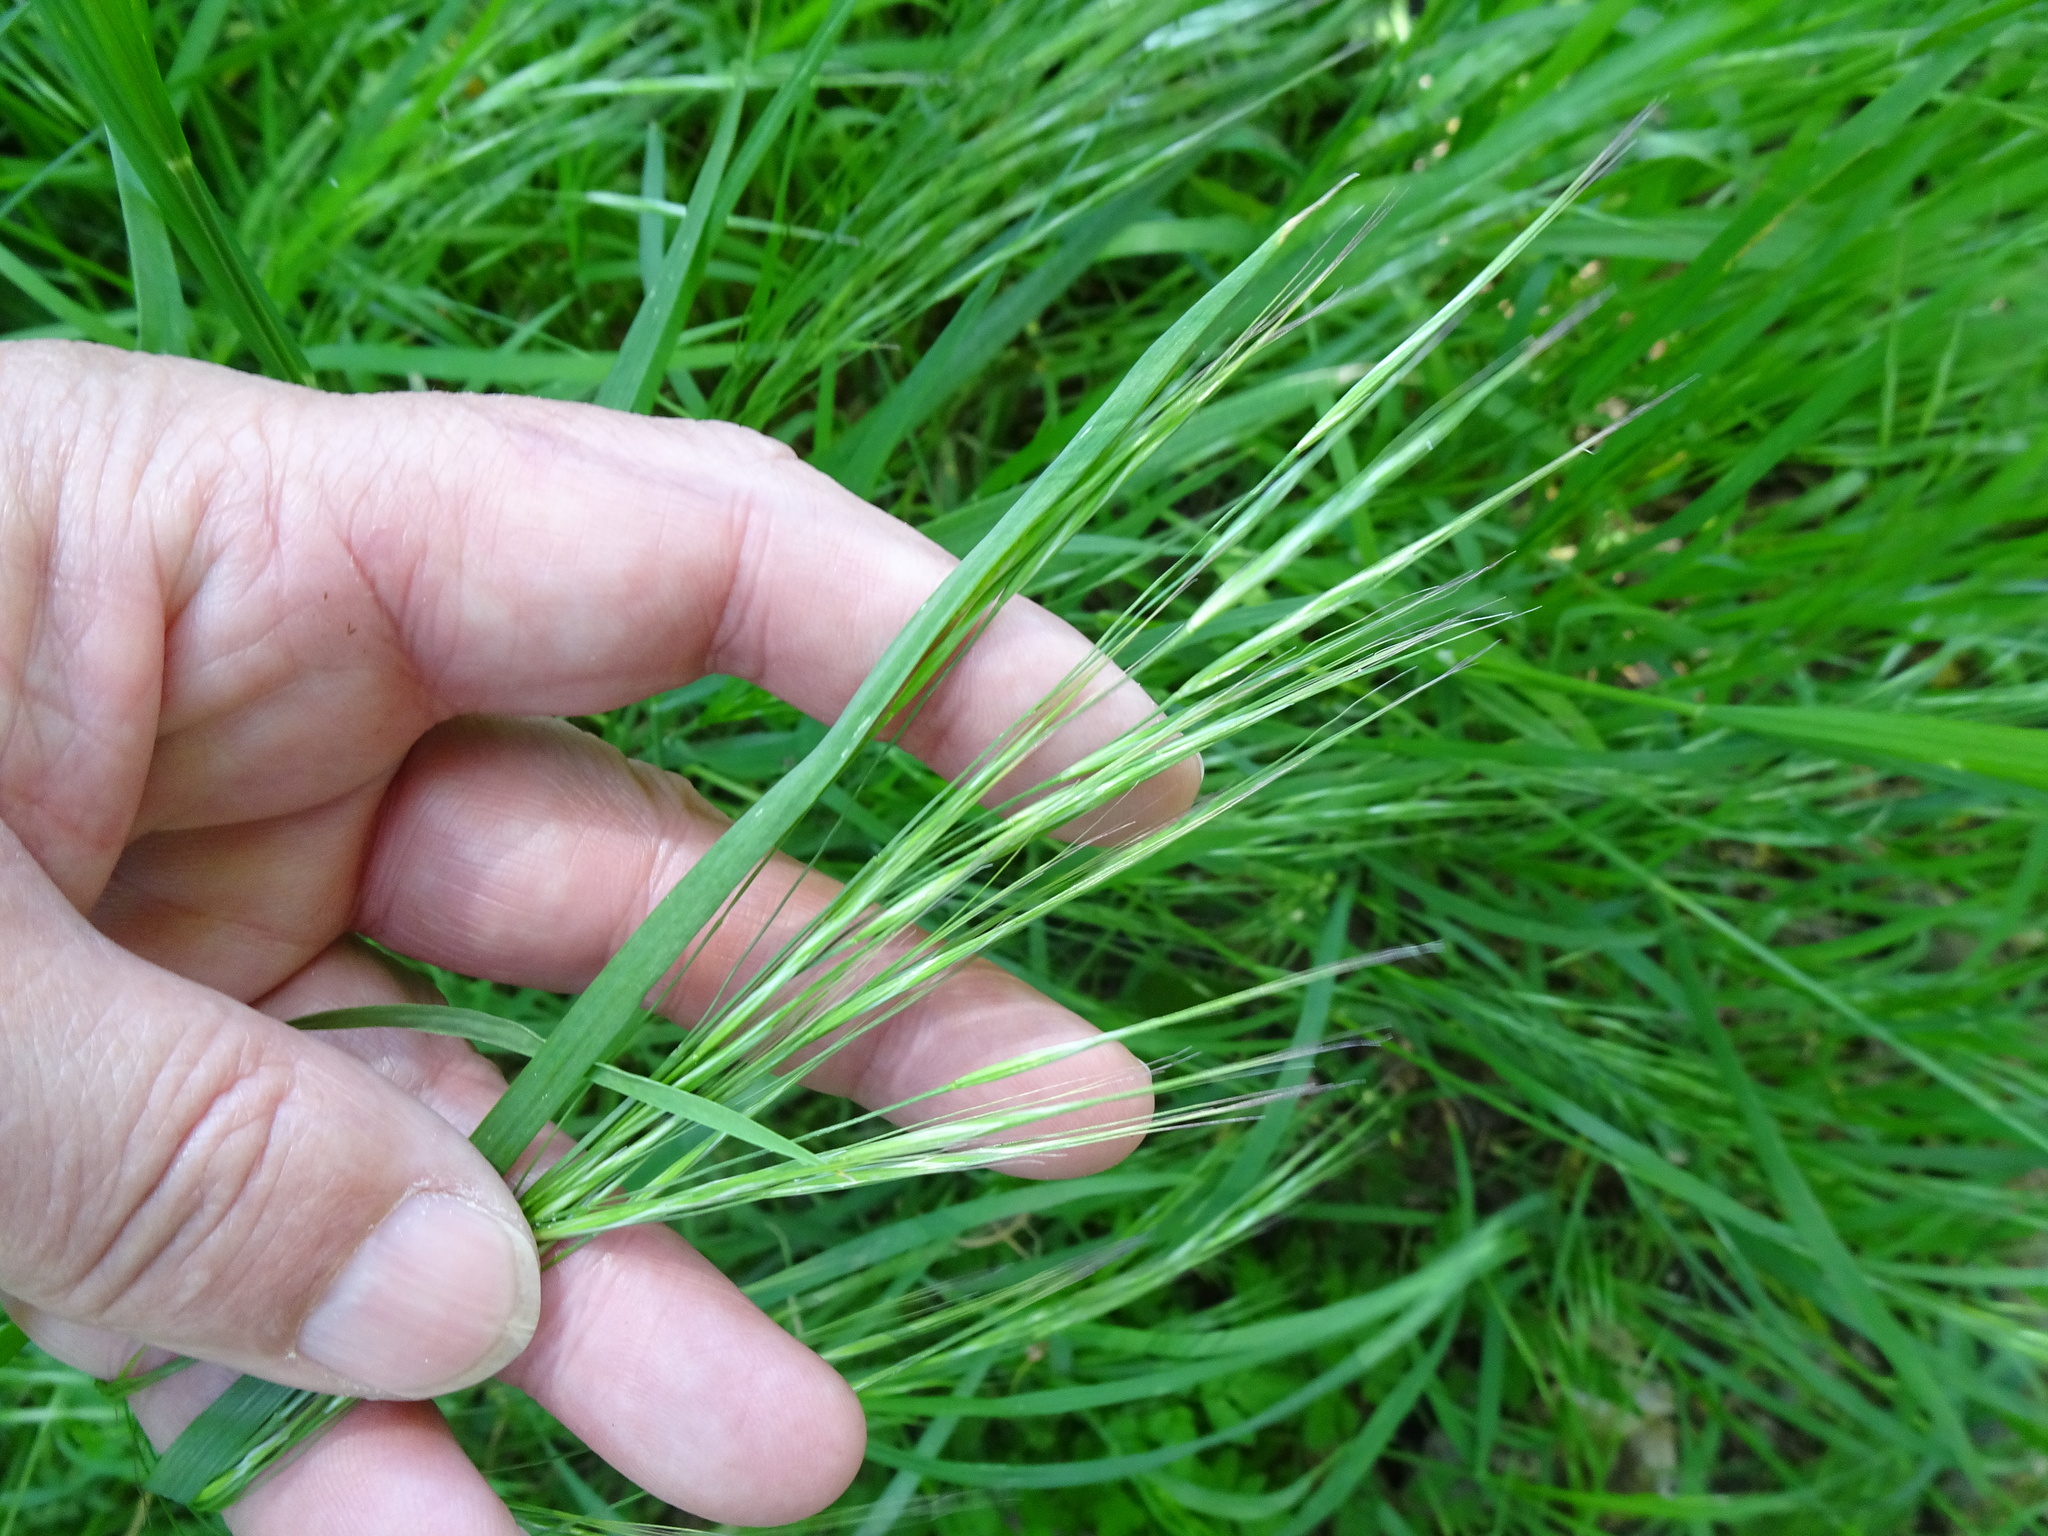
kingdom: Plantae
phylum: Tracheophyta
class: Liliopsida
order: Poales
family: Poaceae
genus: Bromus
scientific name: Bromus sterilis
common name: Poverty brome
